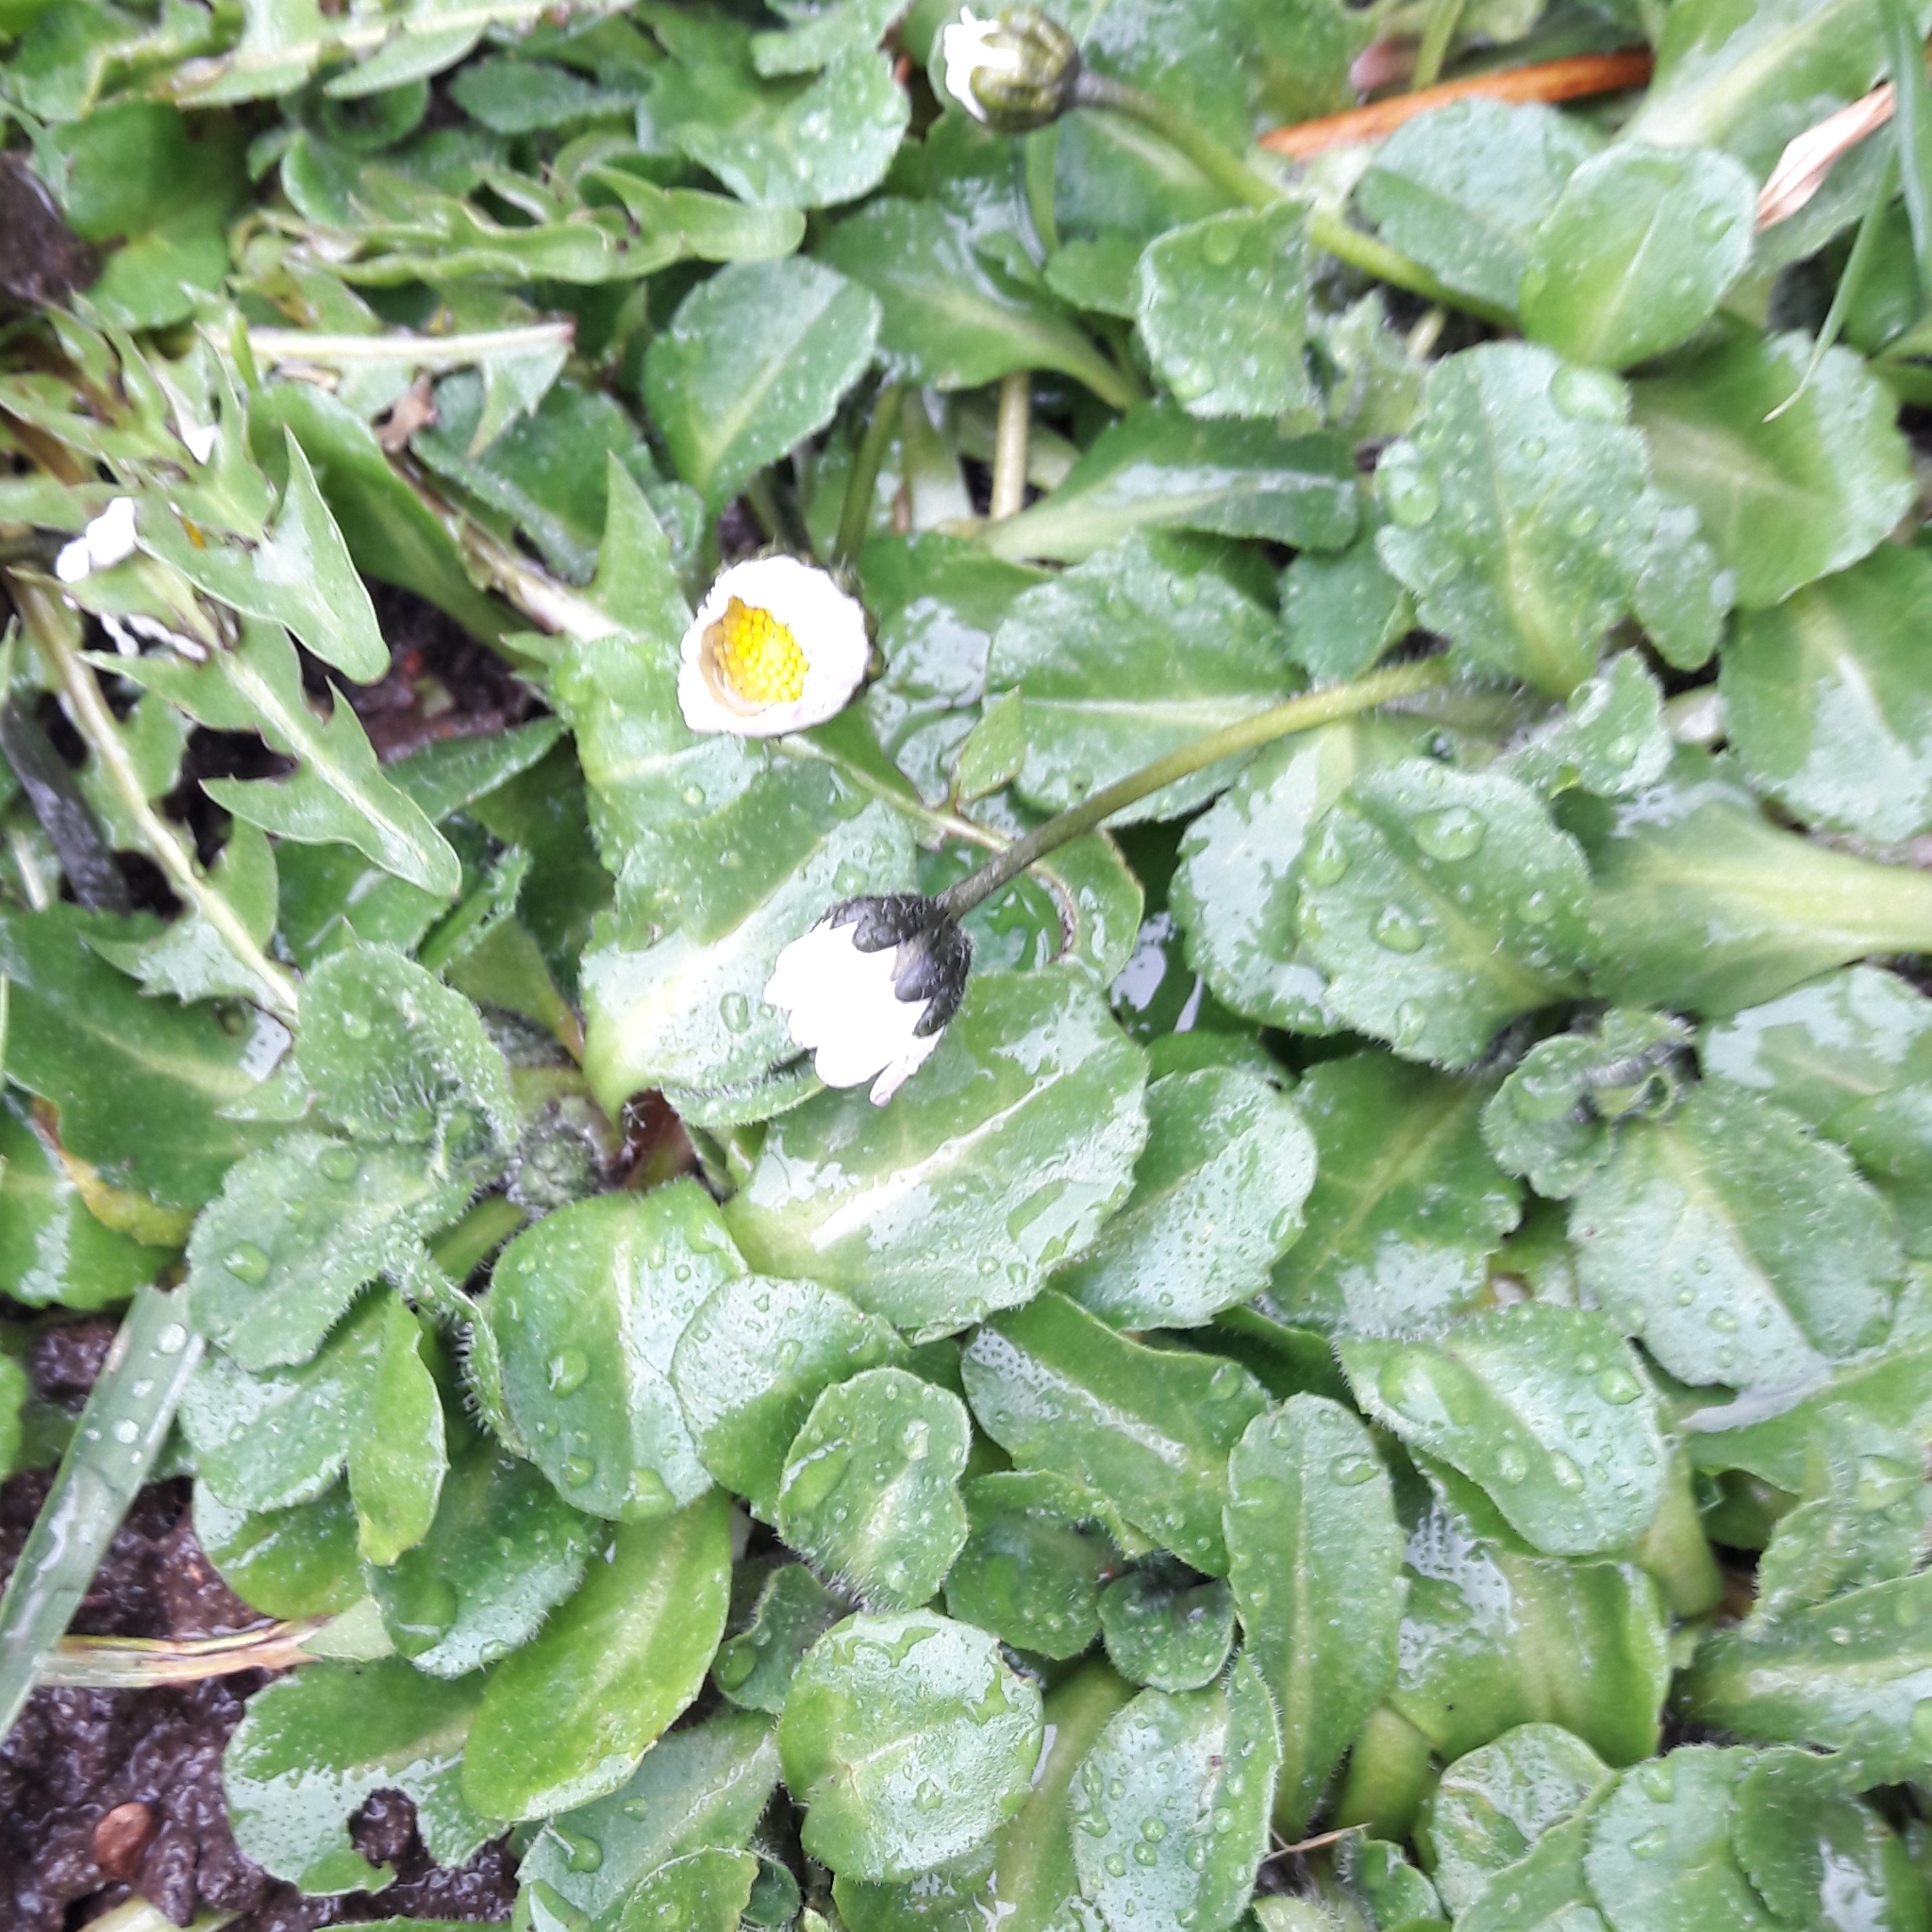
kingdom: Plantae
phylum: Tracheophyta
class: Magnoliopsida
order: Asterales
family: Asteraceae
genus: Bellis
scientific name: Bellis perennis
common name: Lawndaisy
